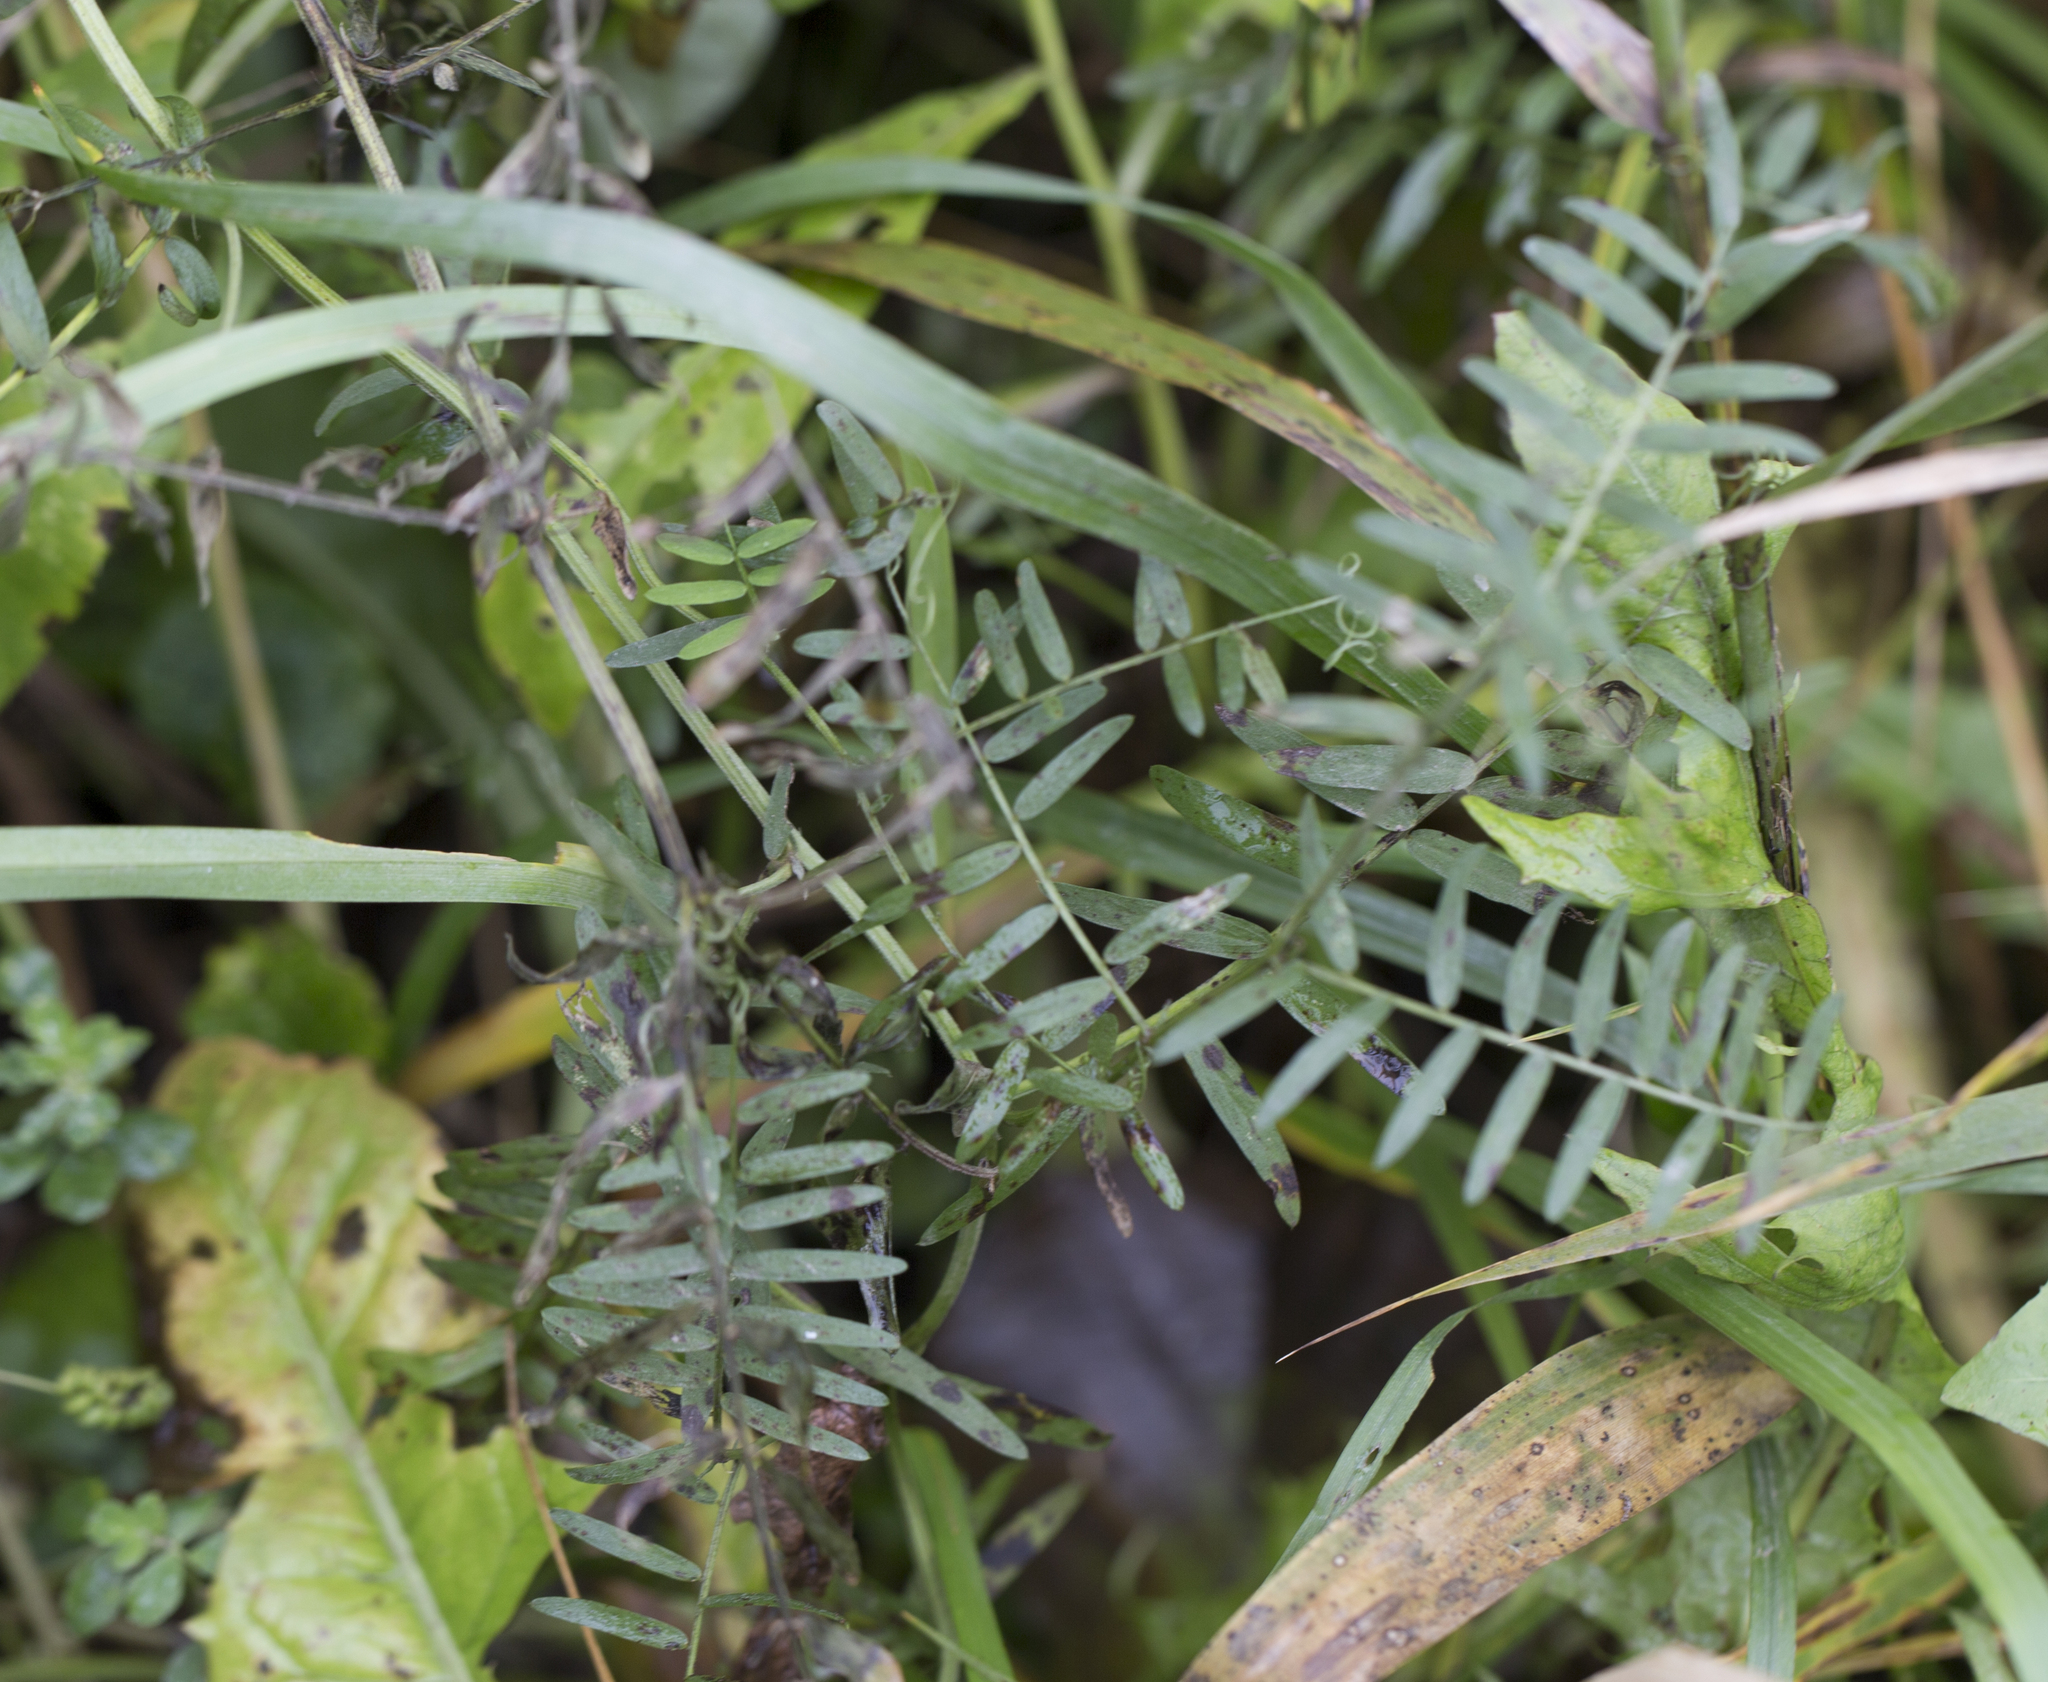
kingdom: Plantae
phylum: Tracheophyta
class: Magnoliopsida
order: Fabales
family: Fabaceae
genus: Vicia
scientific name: Vicia cracca
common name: Bird vetch
